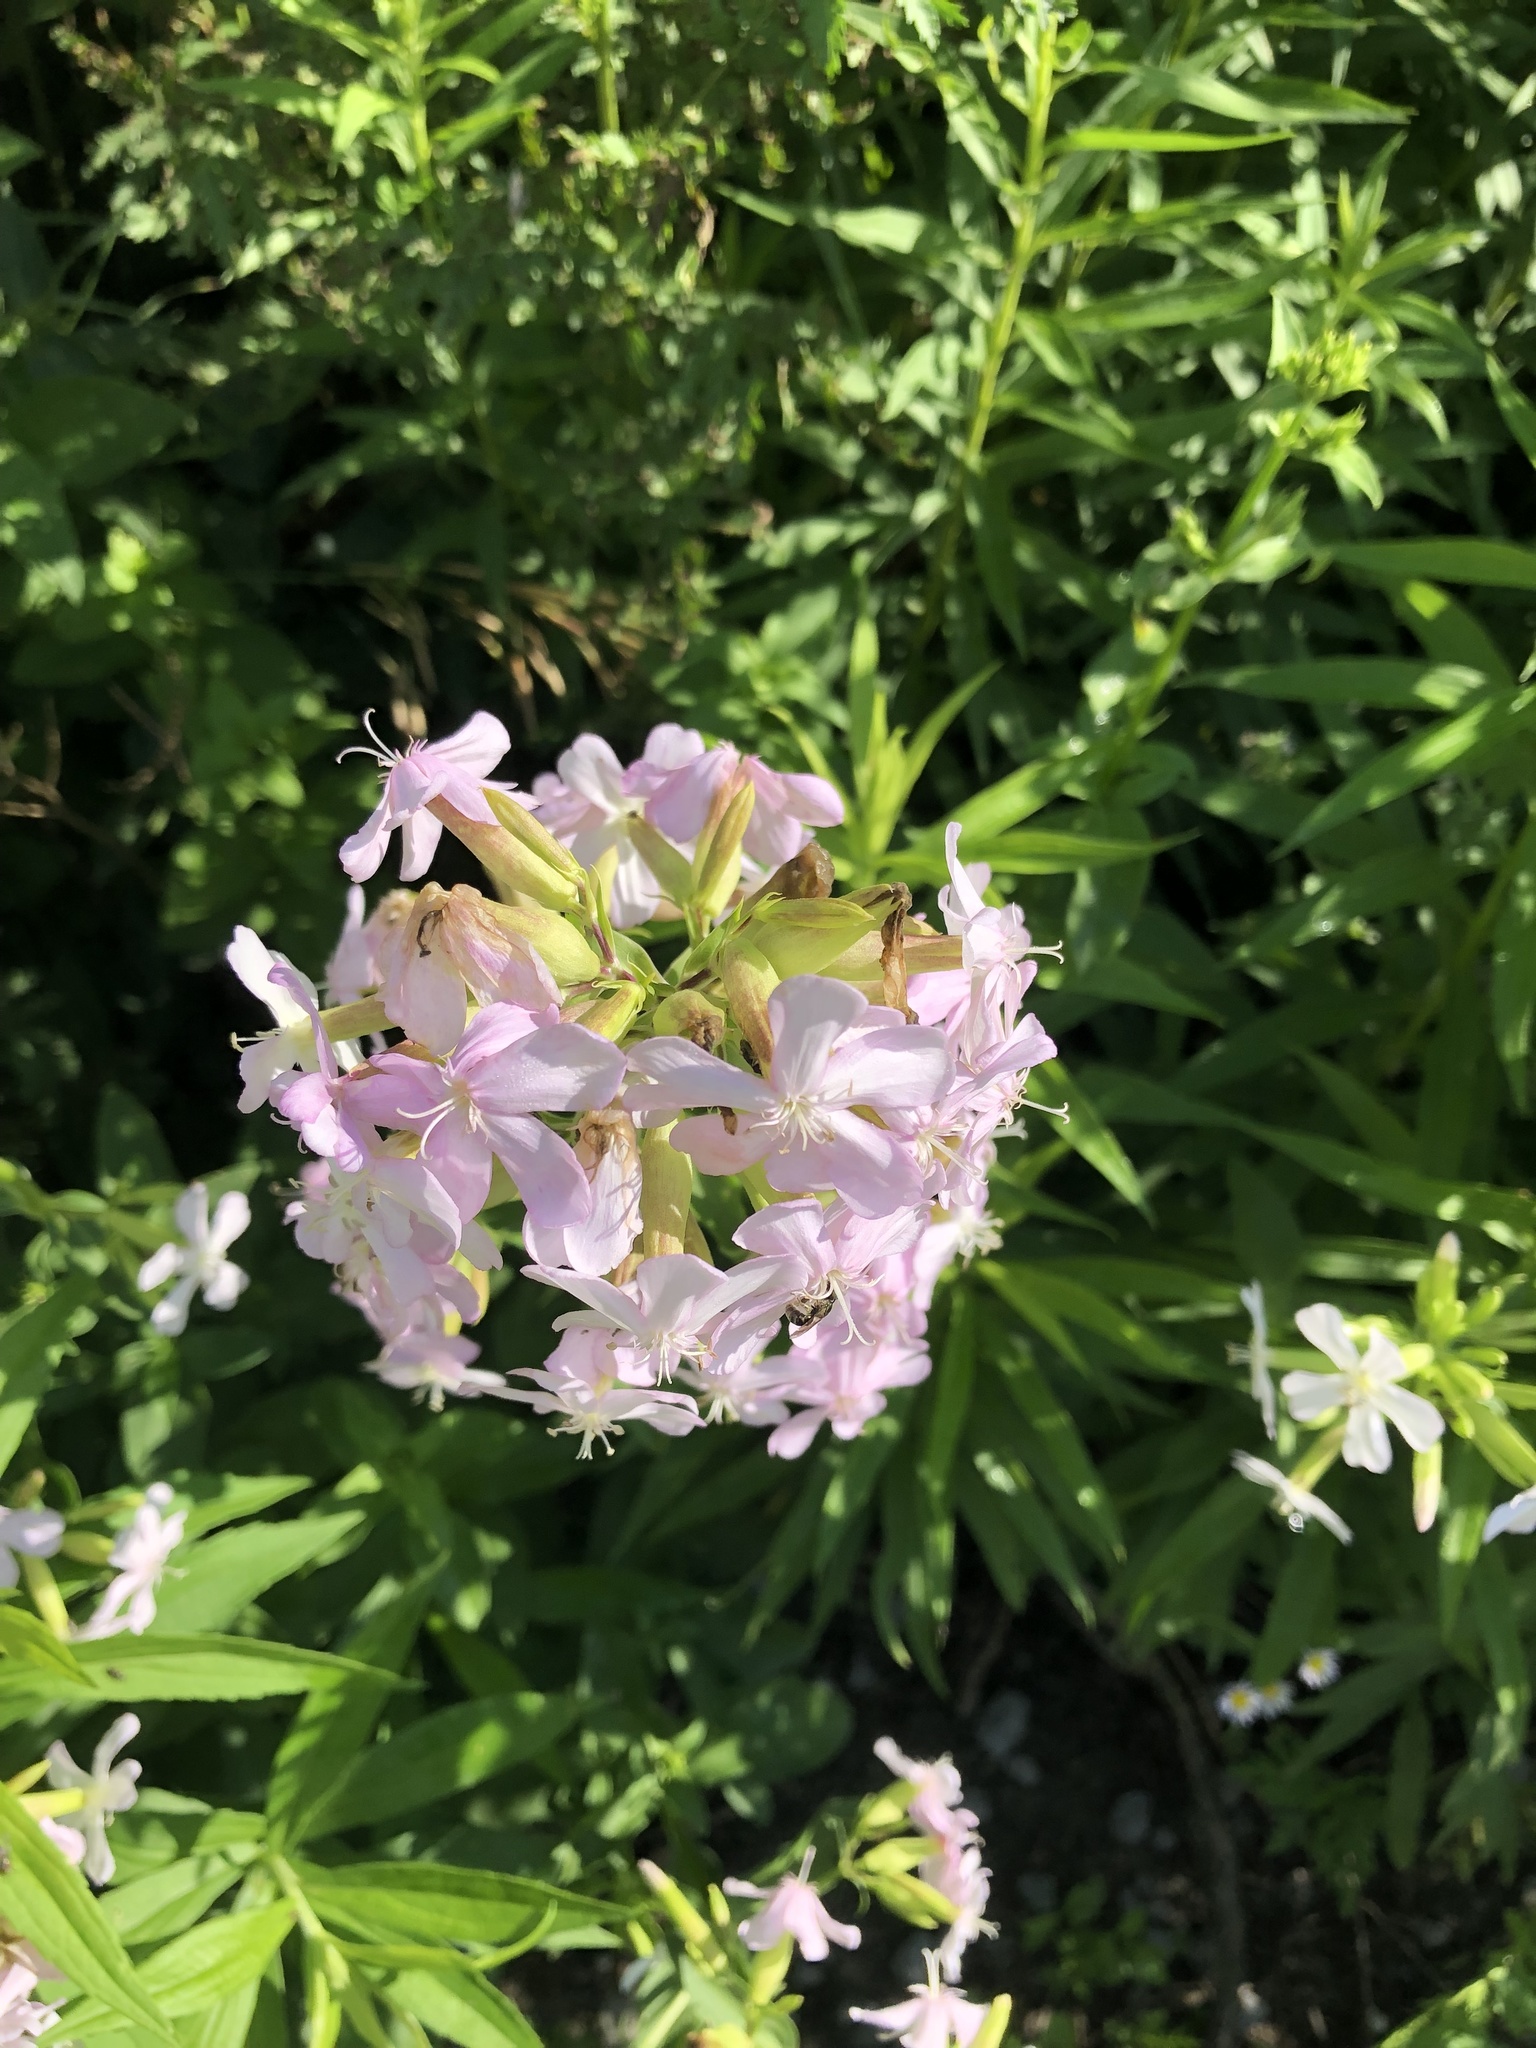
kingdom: Plantae
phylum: Tracheophyta
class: Magnoliopsida
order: Caryophyllales
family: Caryophyllaceae
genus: Saponaria
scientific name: Saponaria officinalis
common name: Soapwort
